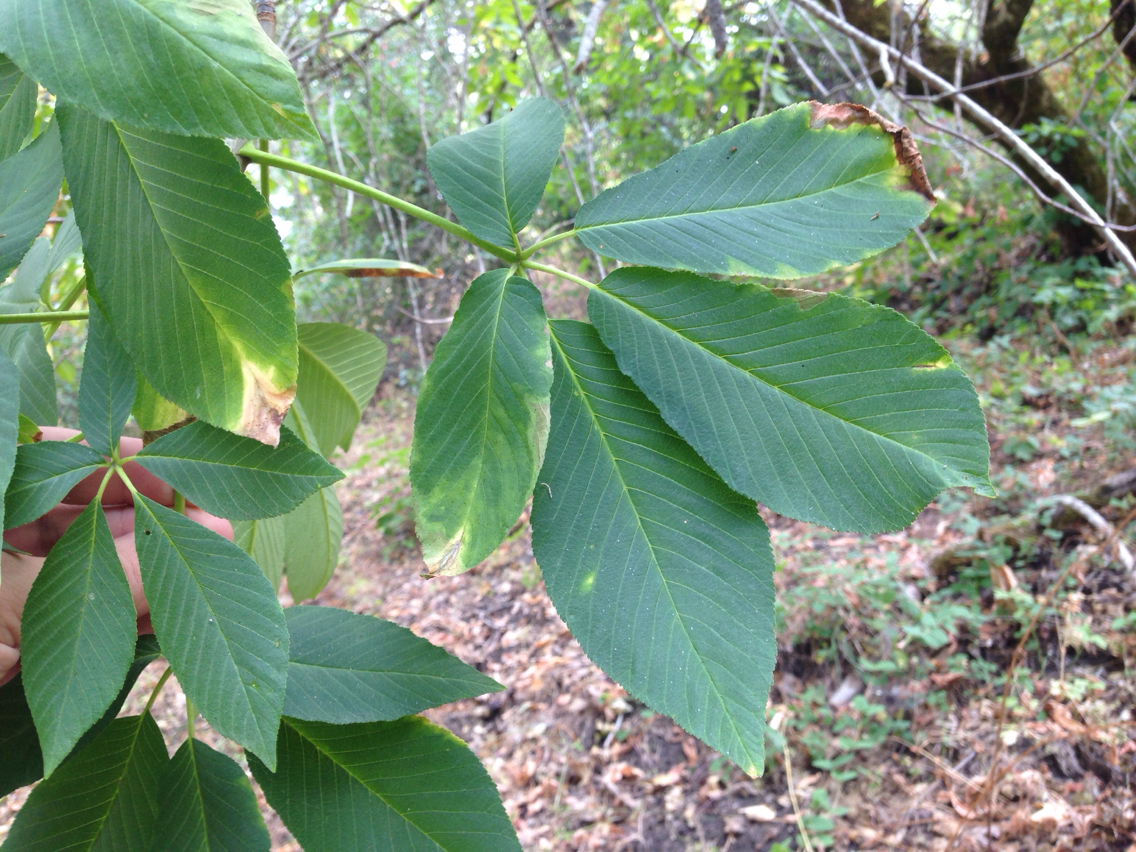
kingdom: Plantae
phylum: Tracheophyta
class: Magnoliopsida
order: Sapindales
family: Sapindaceae
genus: Aesculus
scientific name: Aesculus californica
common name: California buckeye
